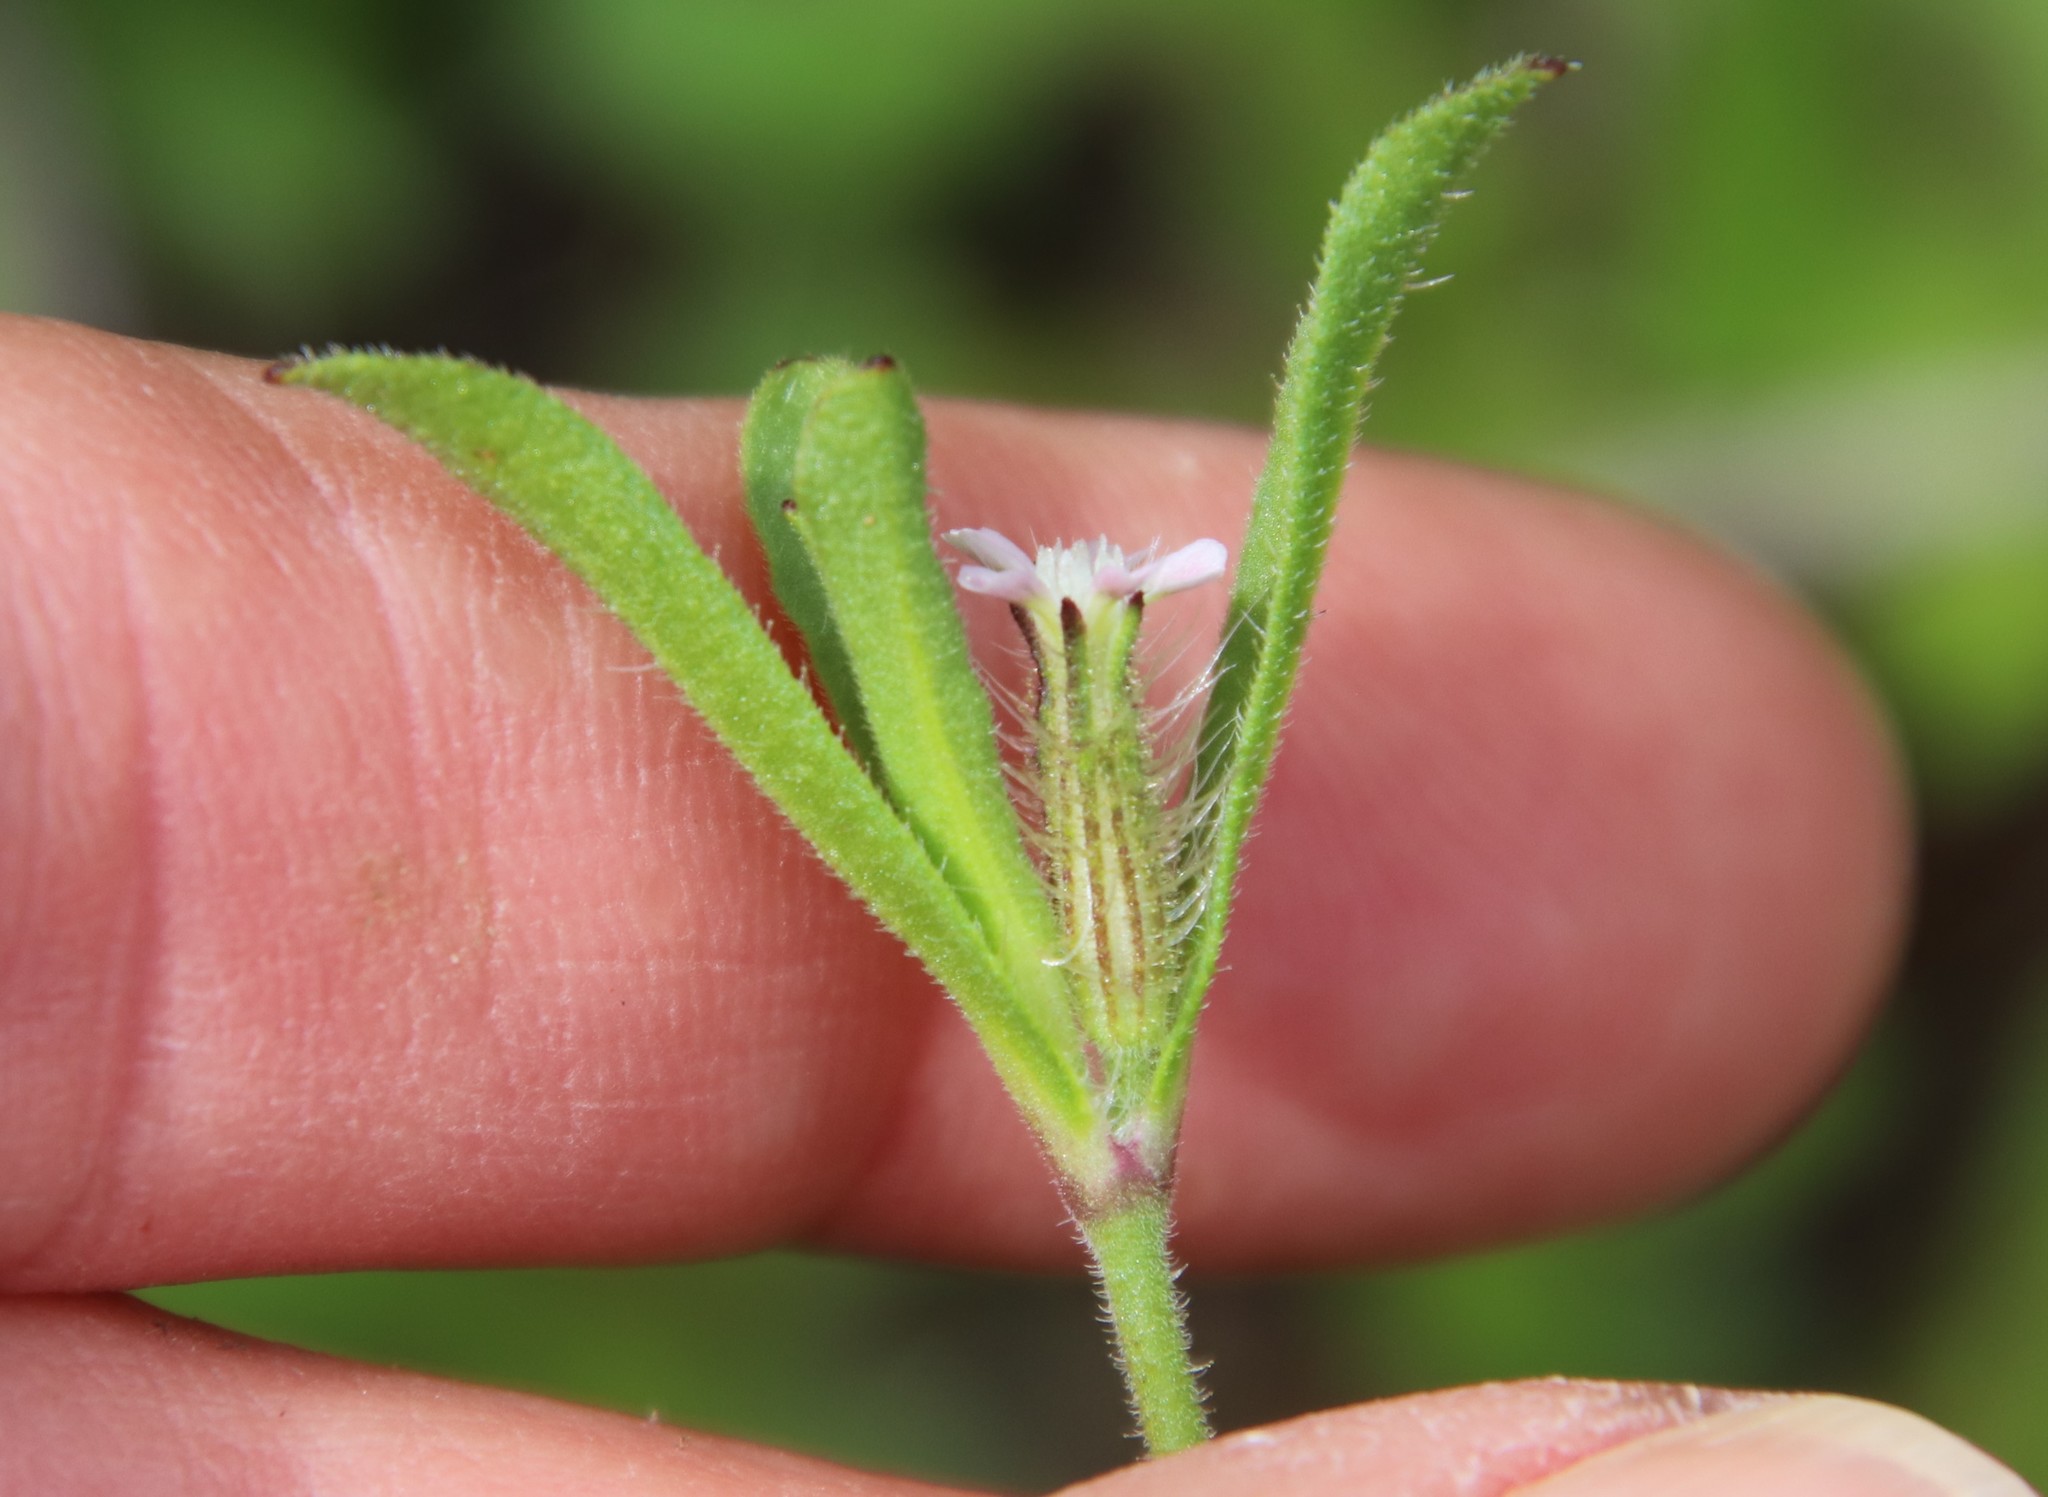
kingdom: Plantae
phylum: Tracheophyta
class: Magnoliopsida
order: Caryophyllales
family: Caryophyllaceae
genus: Silene
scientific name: Silene gallica
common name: Small-flowered catchfly
